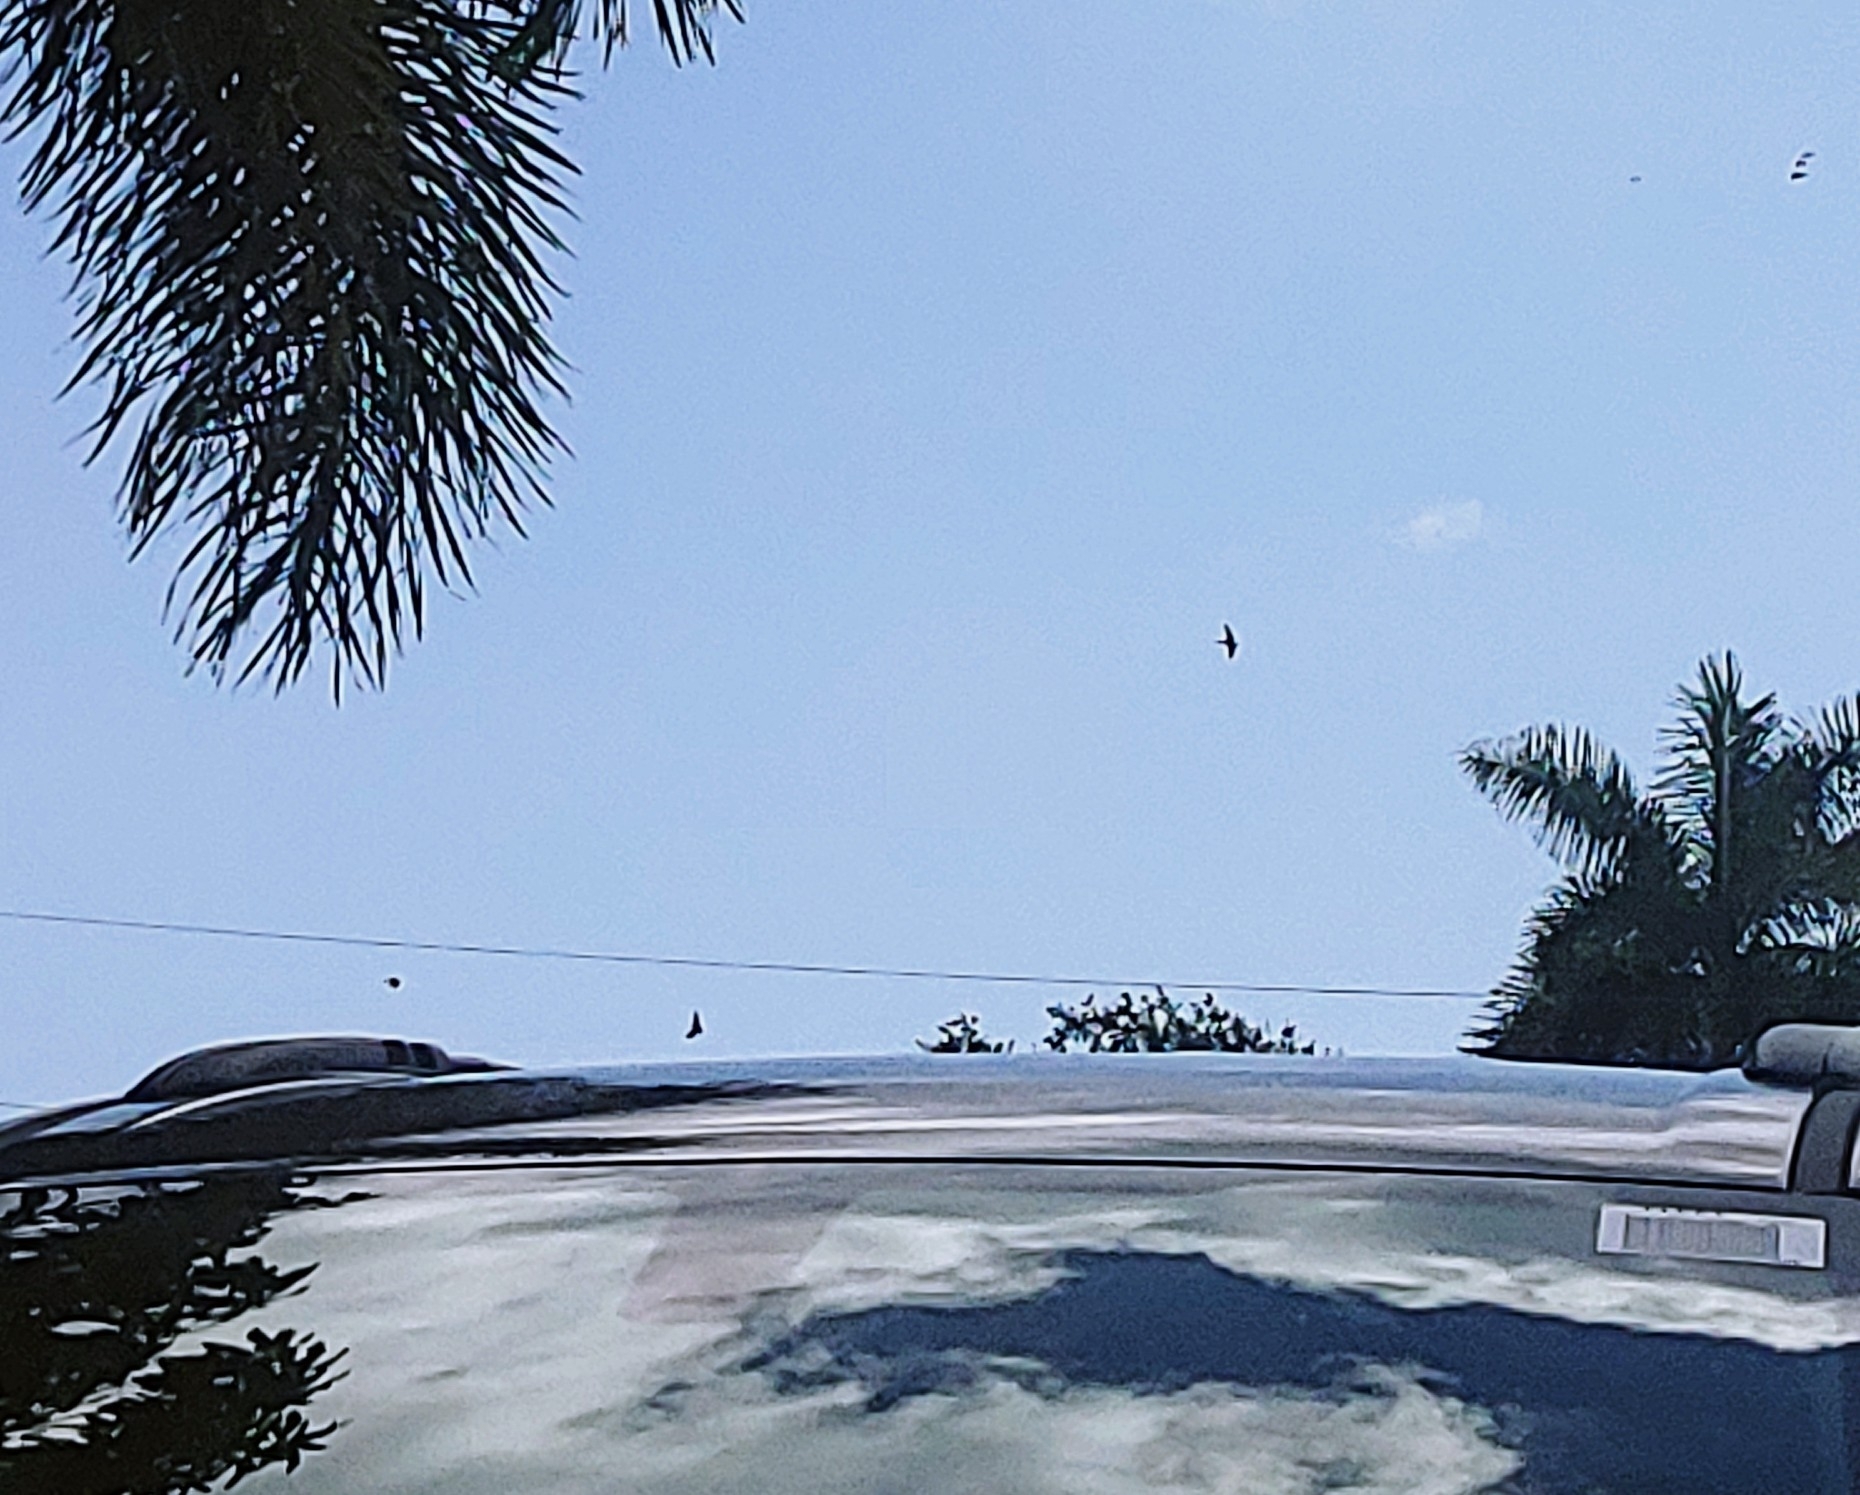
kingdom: Animalia
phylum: Chordata
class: Aves
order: Passeriformes
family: Hirundinidae
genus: Hirundo
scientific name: Hirundo rustica
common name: Barn swallow
